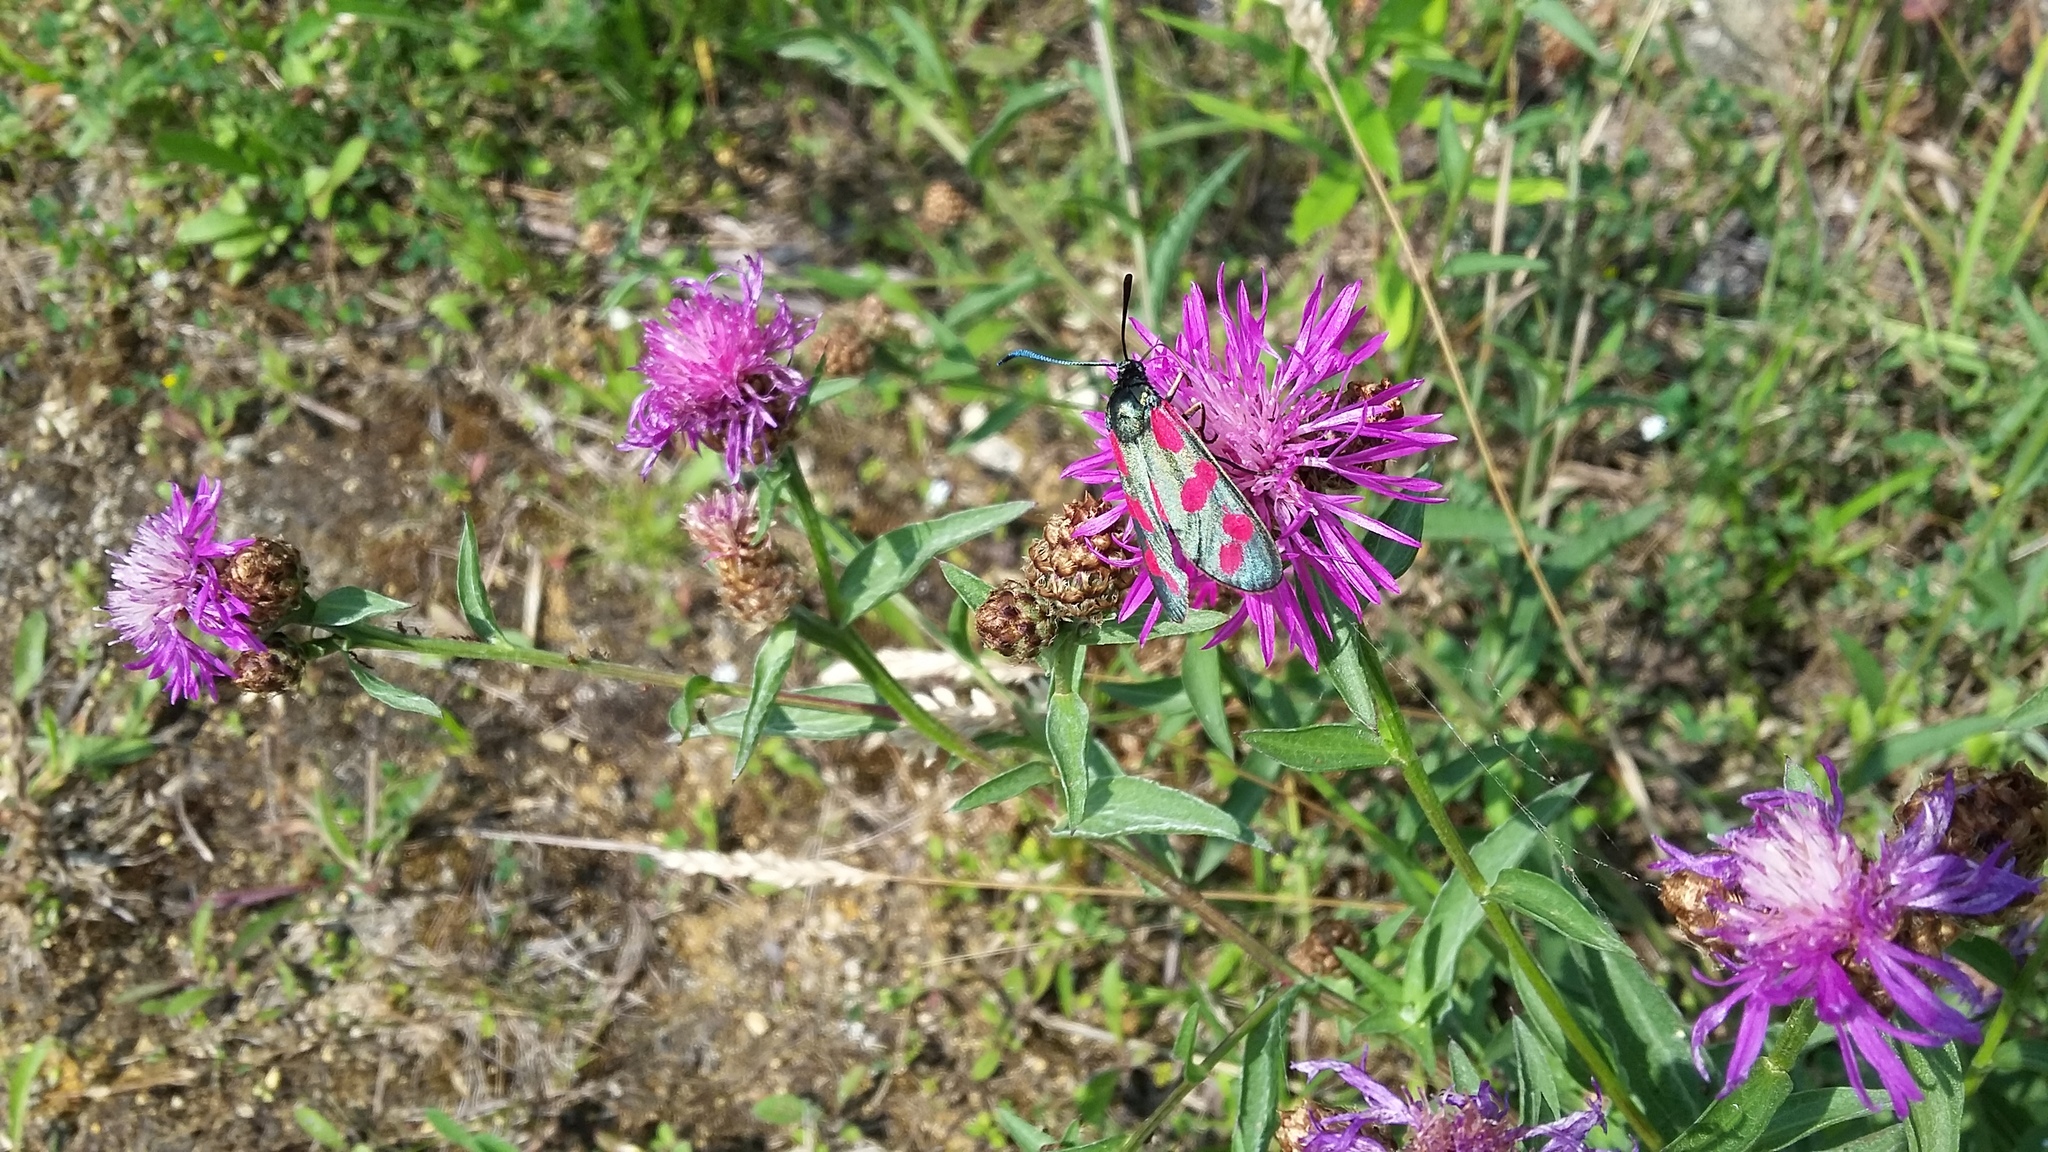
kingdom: Animalia
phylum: Arthropoda
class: Insecta
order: Lepidoptera
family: Zygaenidae
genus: Zygaena
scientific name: Zygaena filipendulae
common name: Six-spot burnet
